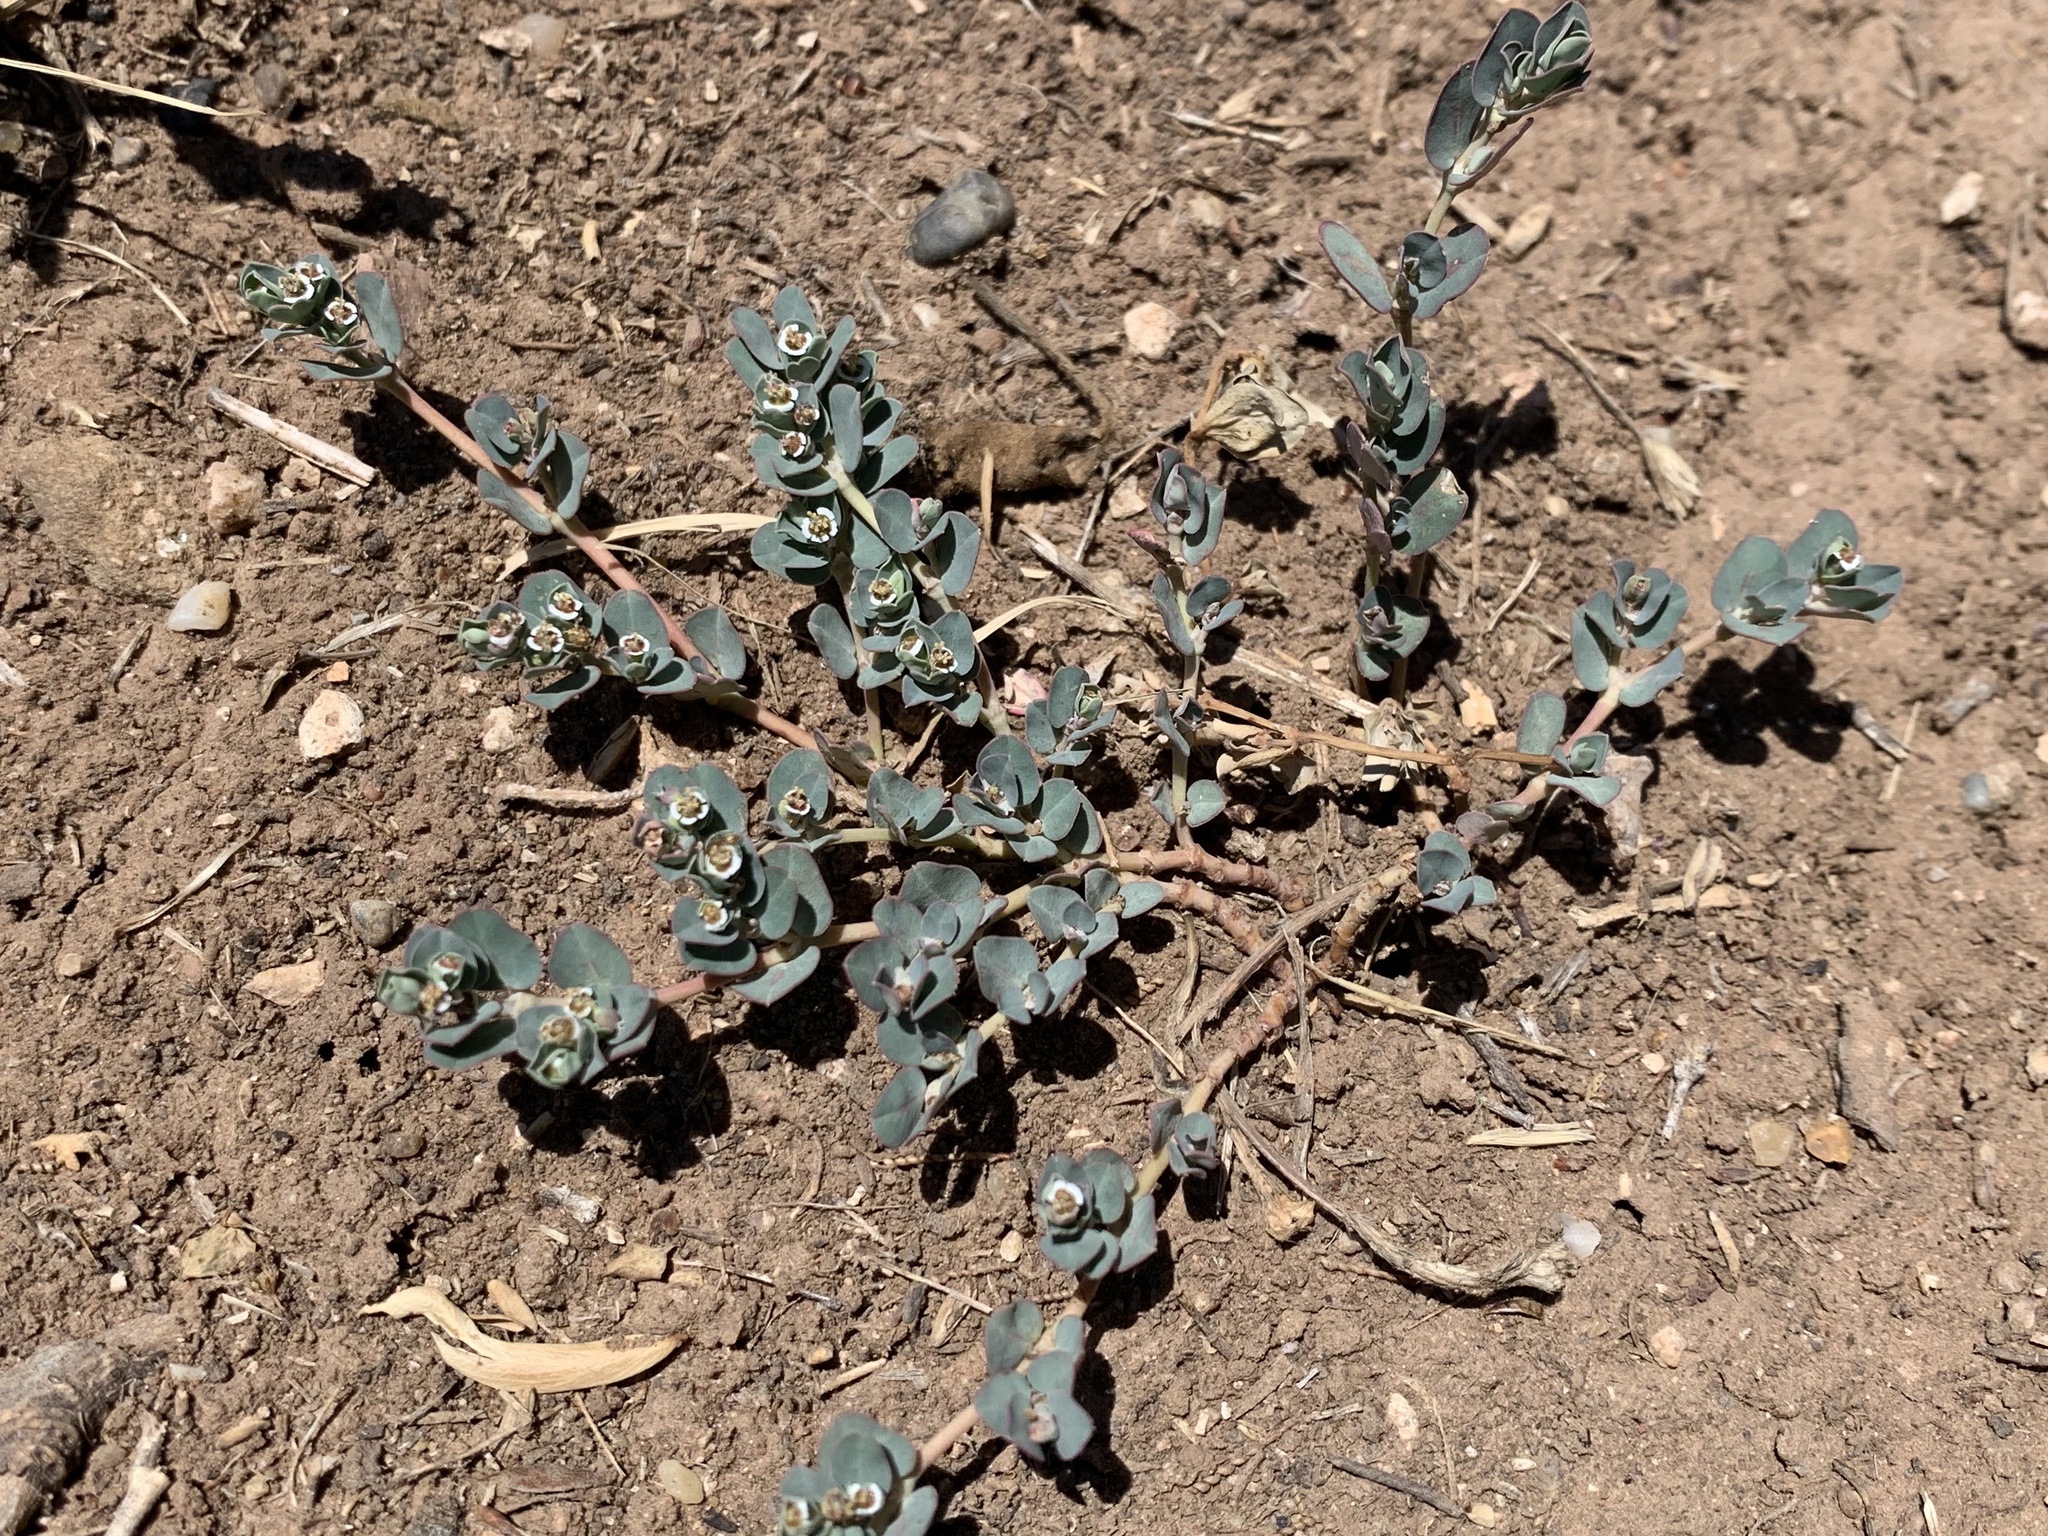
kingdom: Plantae
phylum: Tracheophyta
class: Magnoliopsida
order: Malpighiales
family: Euphorbiaceae
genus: Euphorbia
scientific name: Euphorbia albomarginata
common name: Whitemargin sandmat
